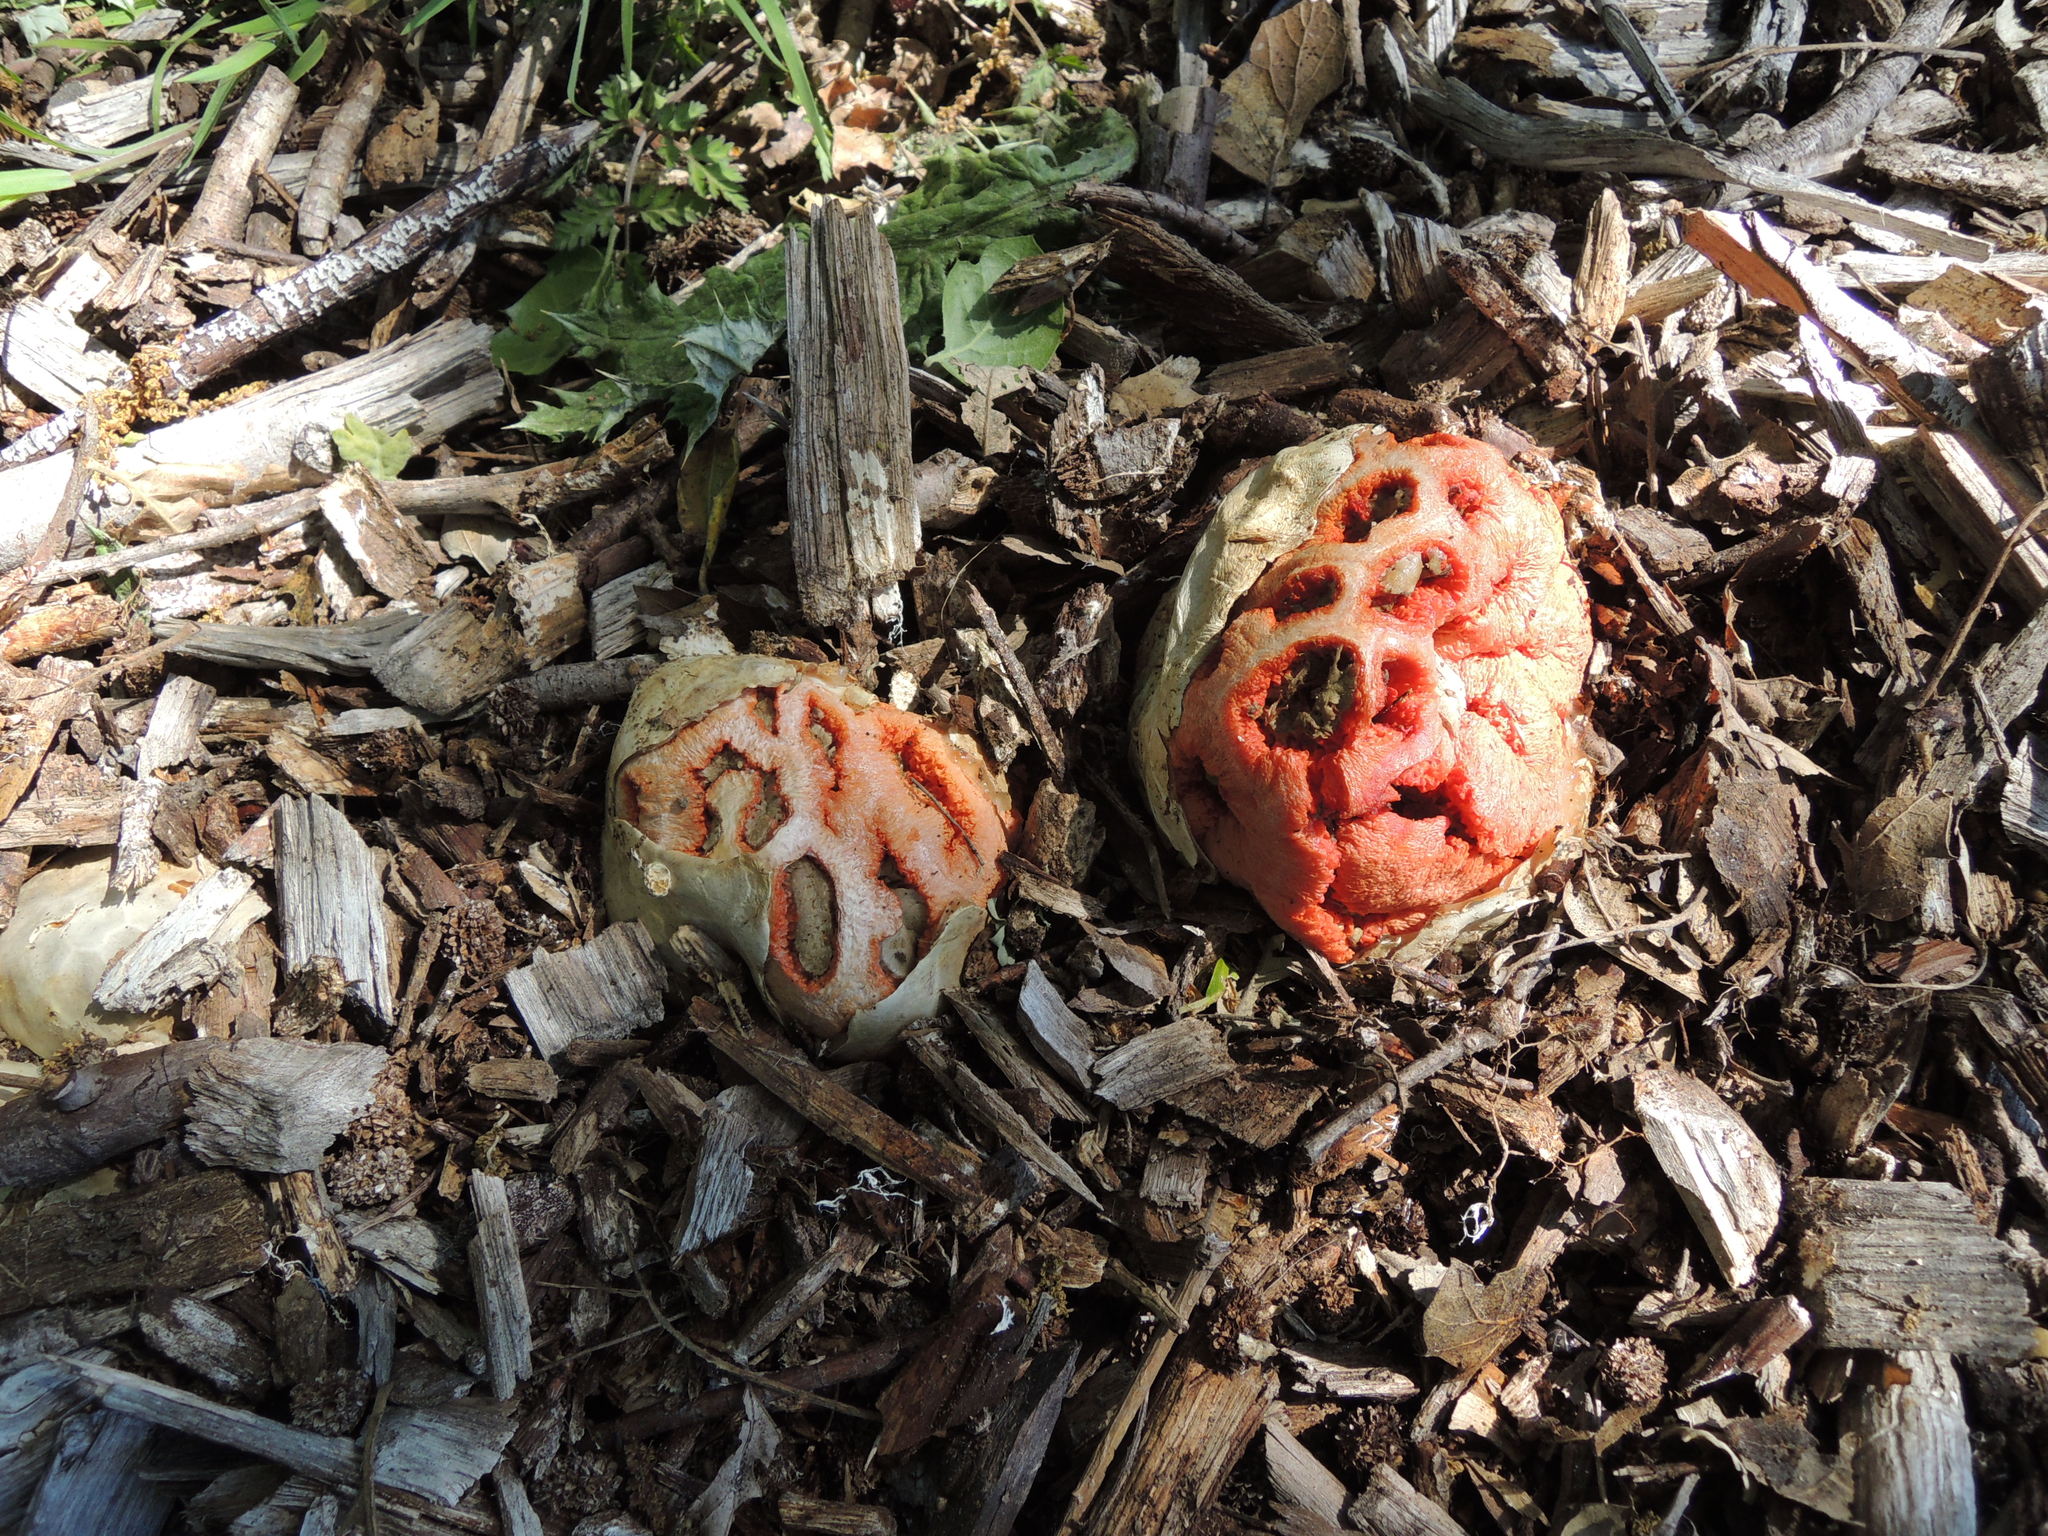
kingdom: Fungi
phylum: Basidiomycota
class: Agaricomycetes
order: Phallales
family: Phallaceae
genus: Clathrus
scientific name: Clathrus ruber
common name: Red cage
